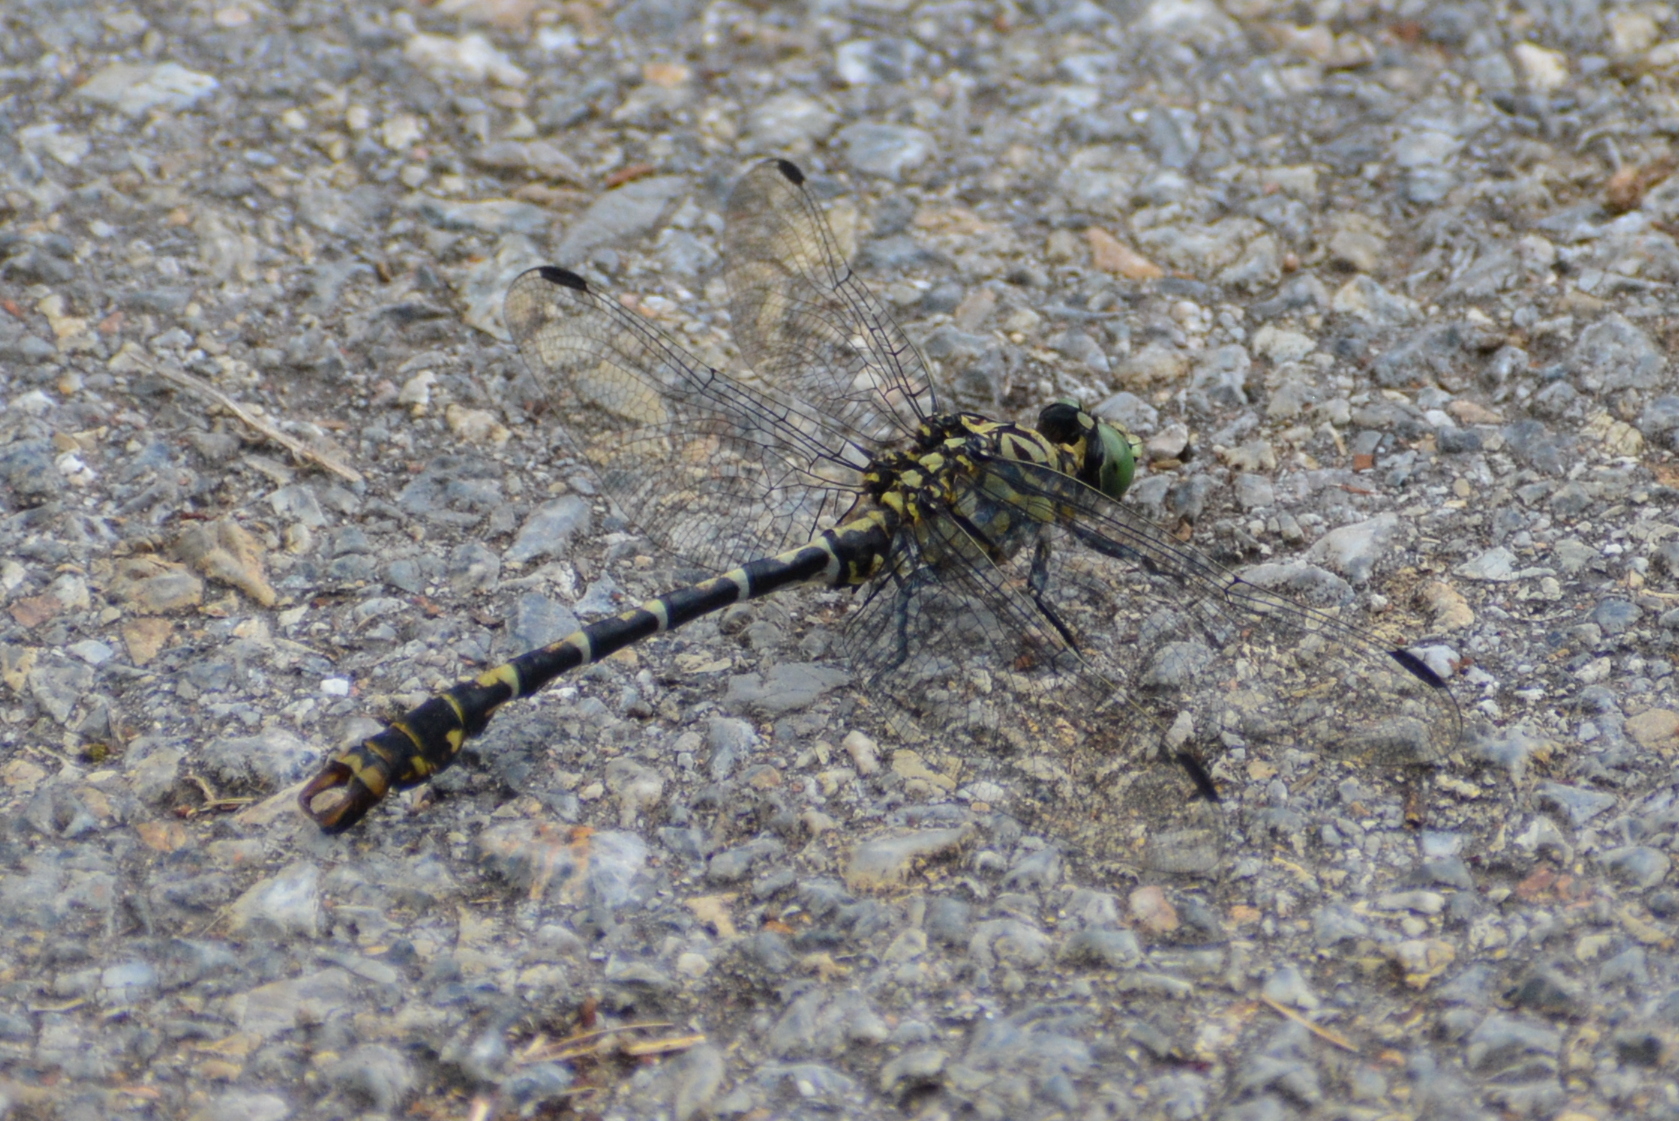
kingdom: Animalia
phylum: Arthropoda
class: Insecta
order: Odonata
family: Gomphidae
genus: Onychogomphus
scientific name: Onychogomphus forcipatus
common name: Small pincertail
